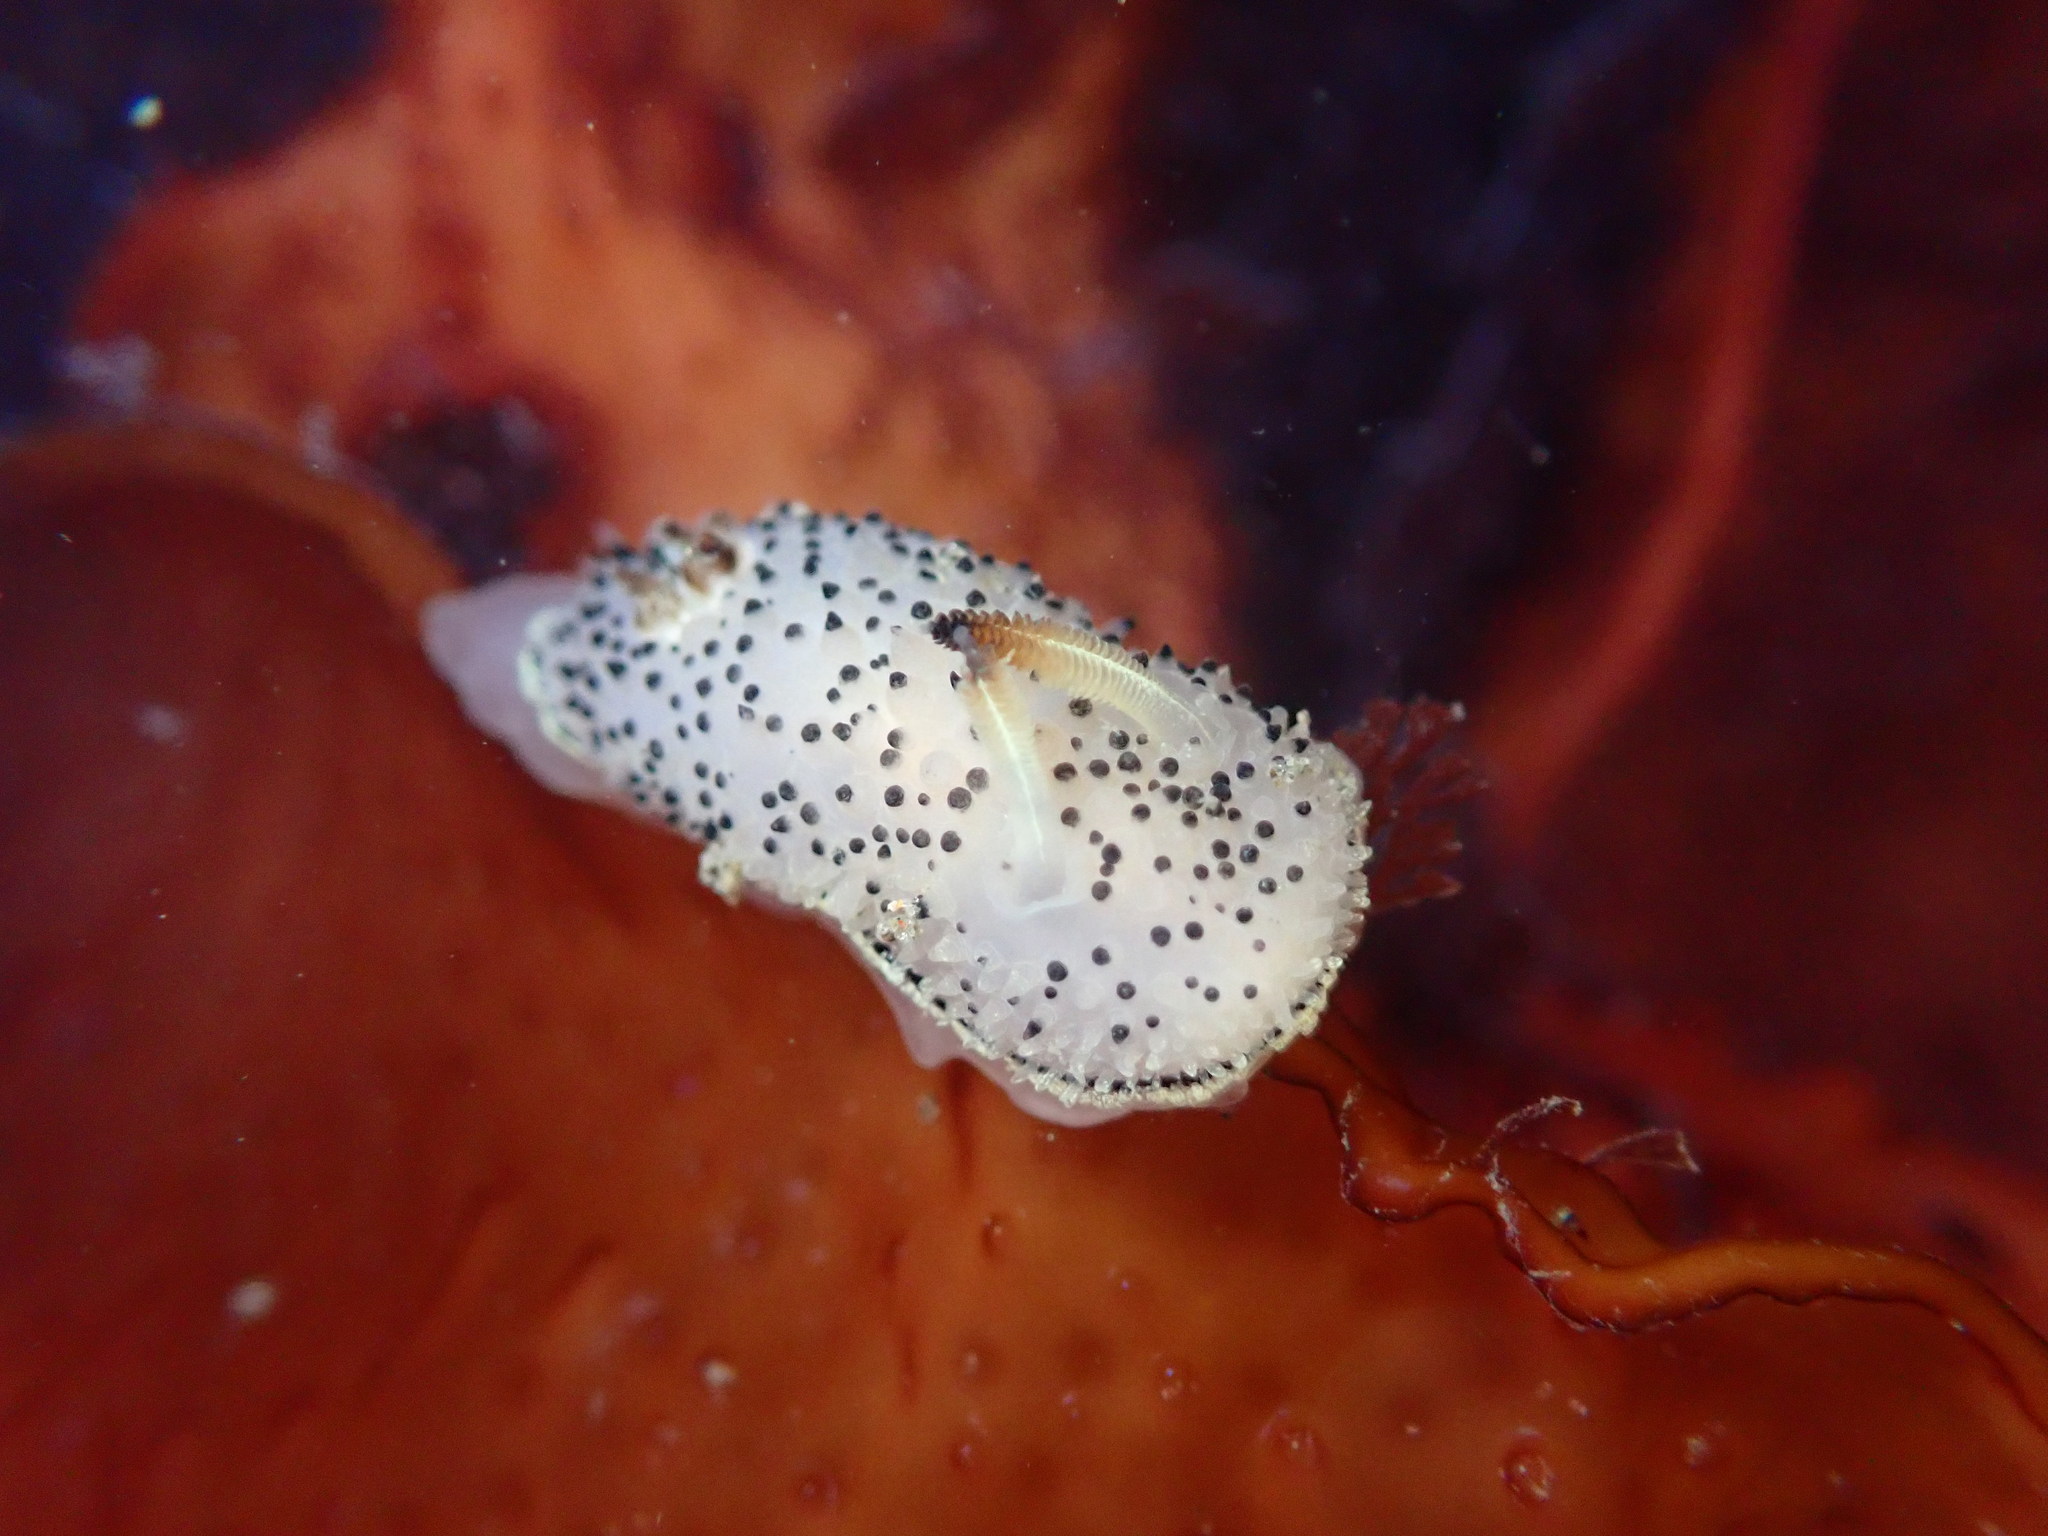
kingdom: Animalia
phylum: Mollusca
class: Gastropoda
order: Nudibranchia
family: Onchidorididae
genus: Acanthodoris
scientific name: Acanthodoris rhodoceras
